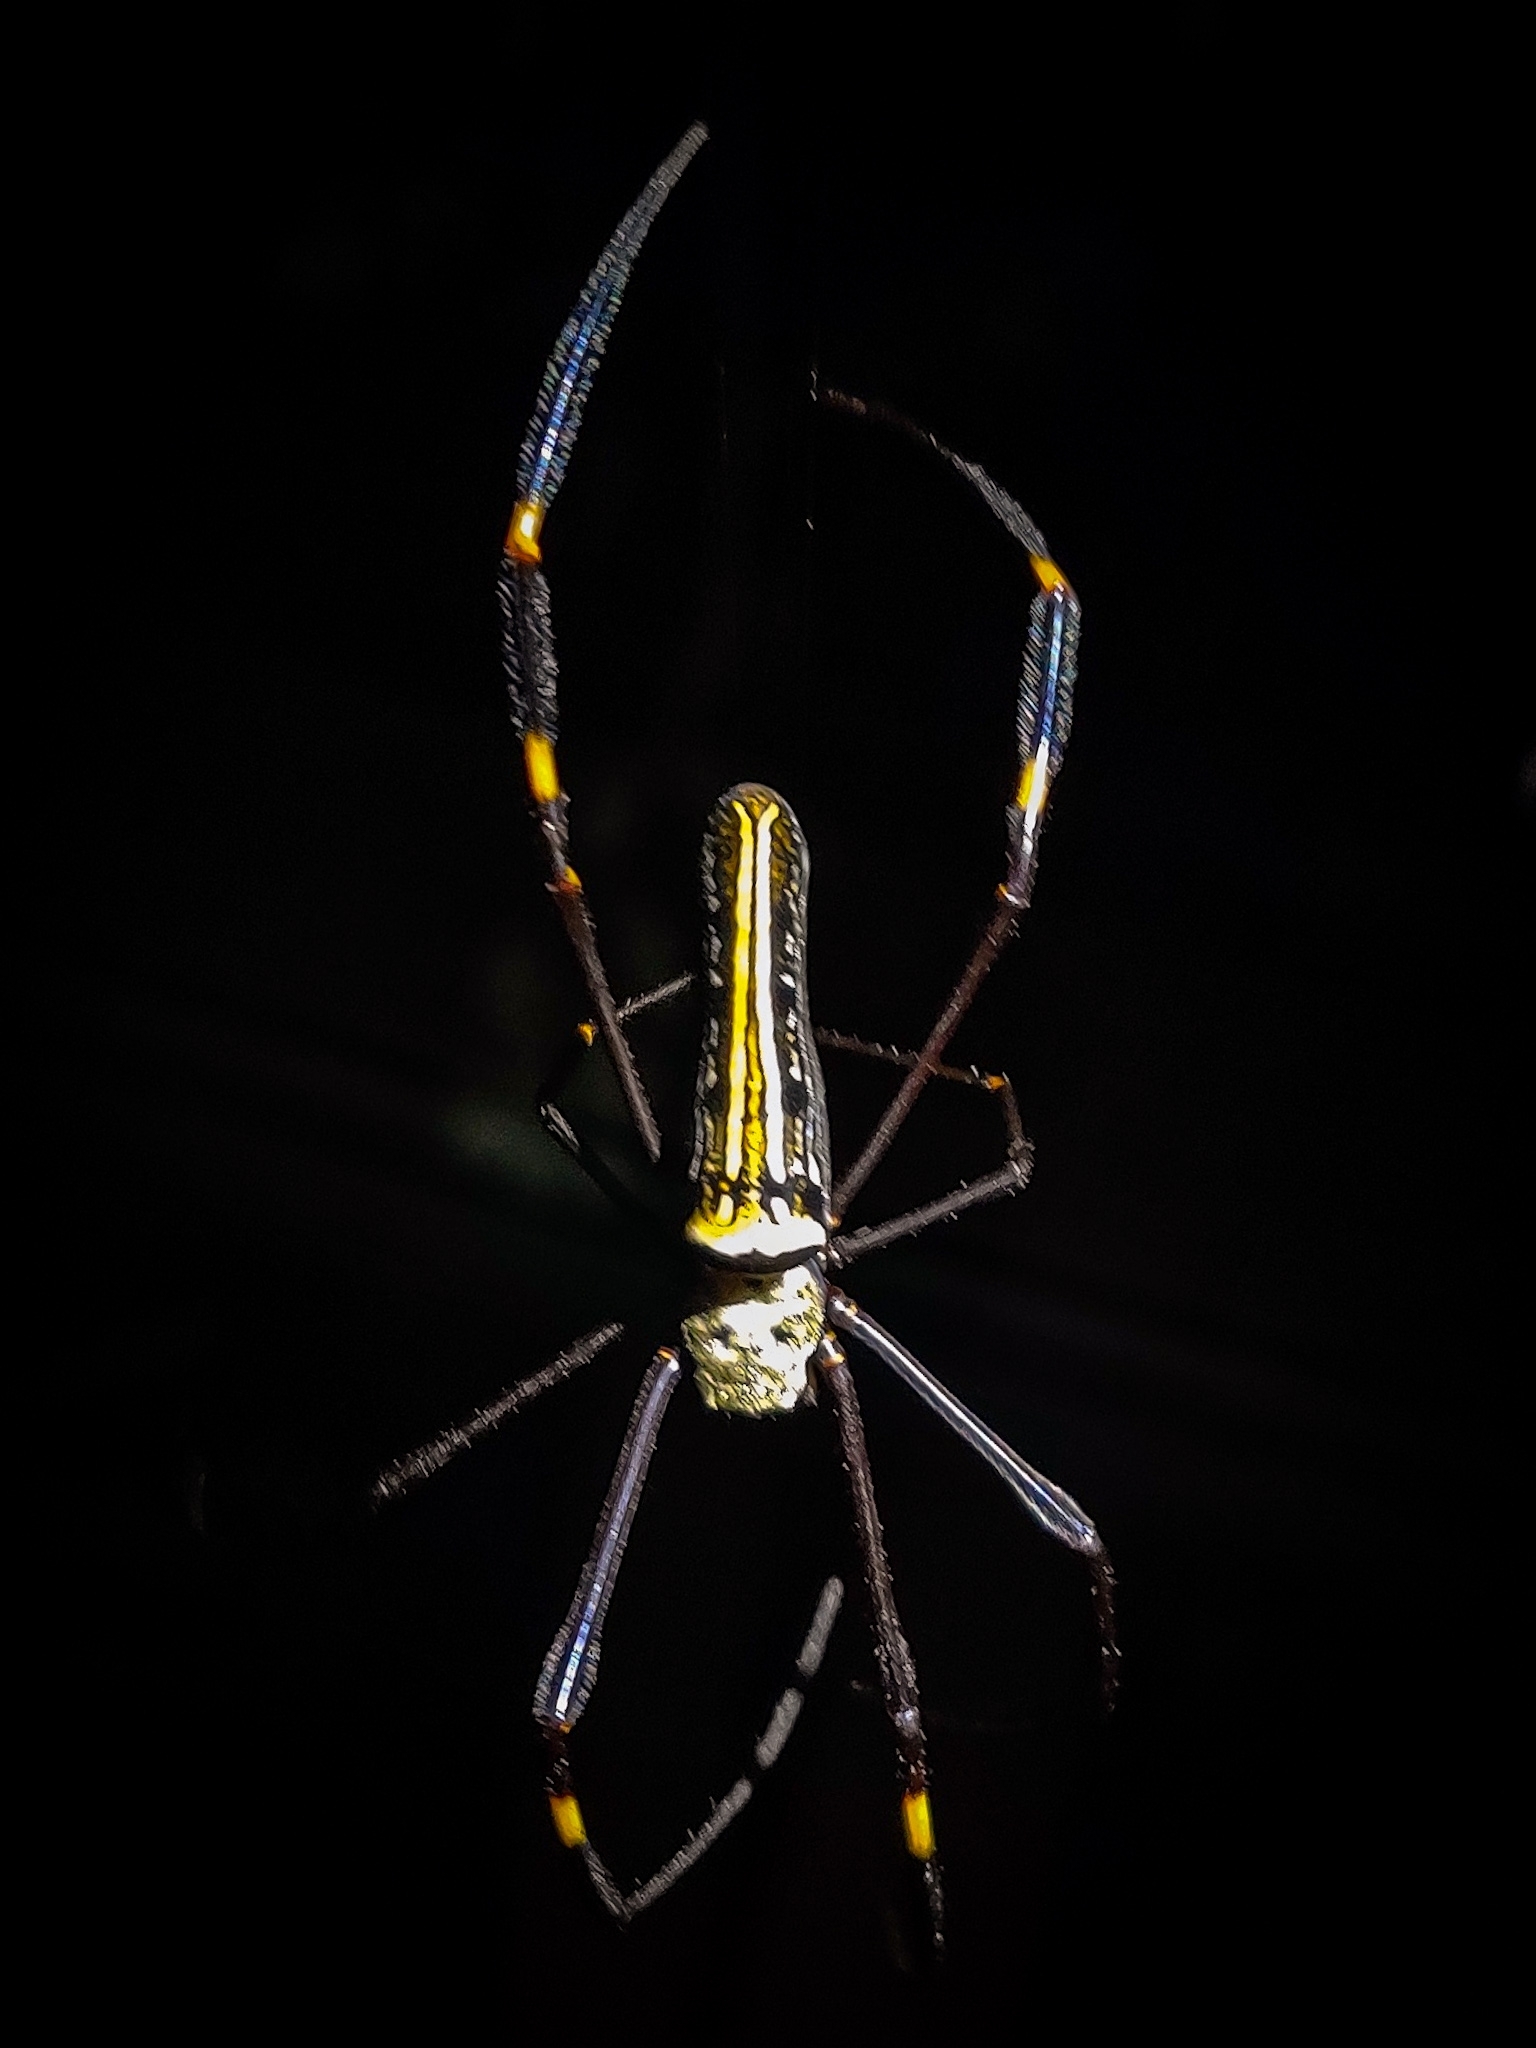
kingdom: Animalia
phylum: Arthropoda
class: Arachnida
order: Araneae
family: Araneidae
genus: Nephila
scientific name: Nephila pilipes
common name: Giant golden orb weaver
